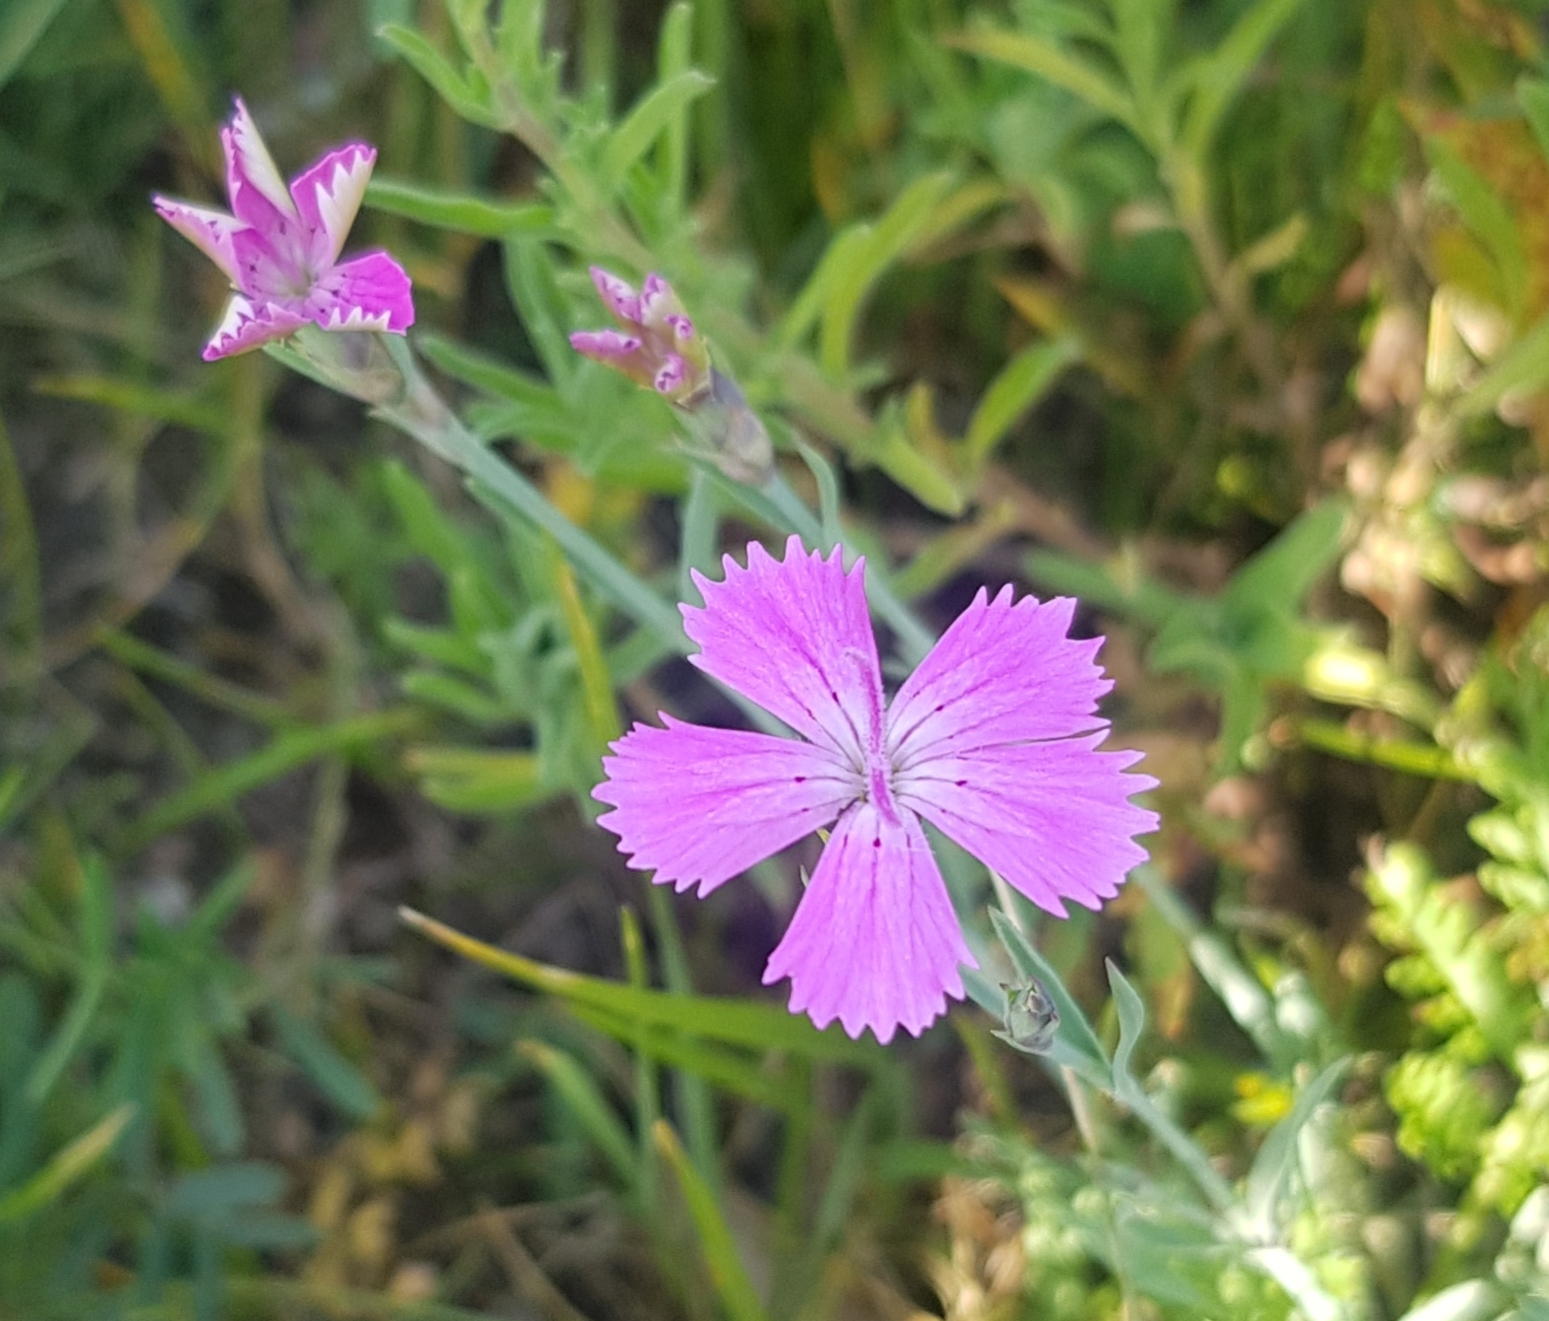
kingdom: Plantae
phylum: Tracheophyta
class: Magnoliopsida
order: Caryophyllales
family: Caryophyllaceae
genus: Dianthus
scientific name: Dianthus chinensis
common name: Rainbow pink
